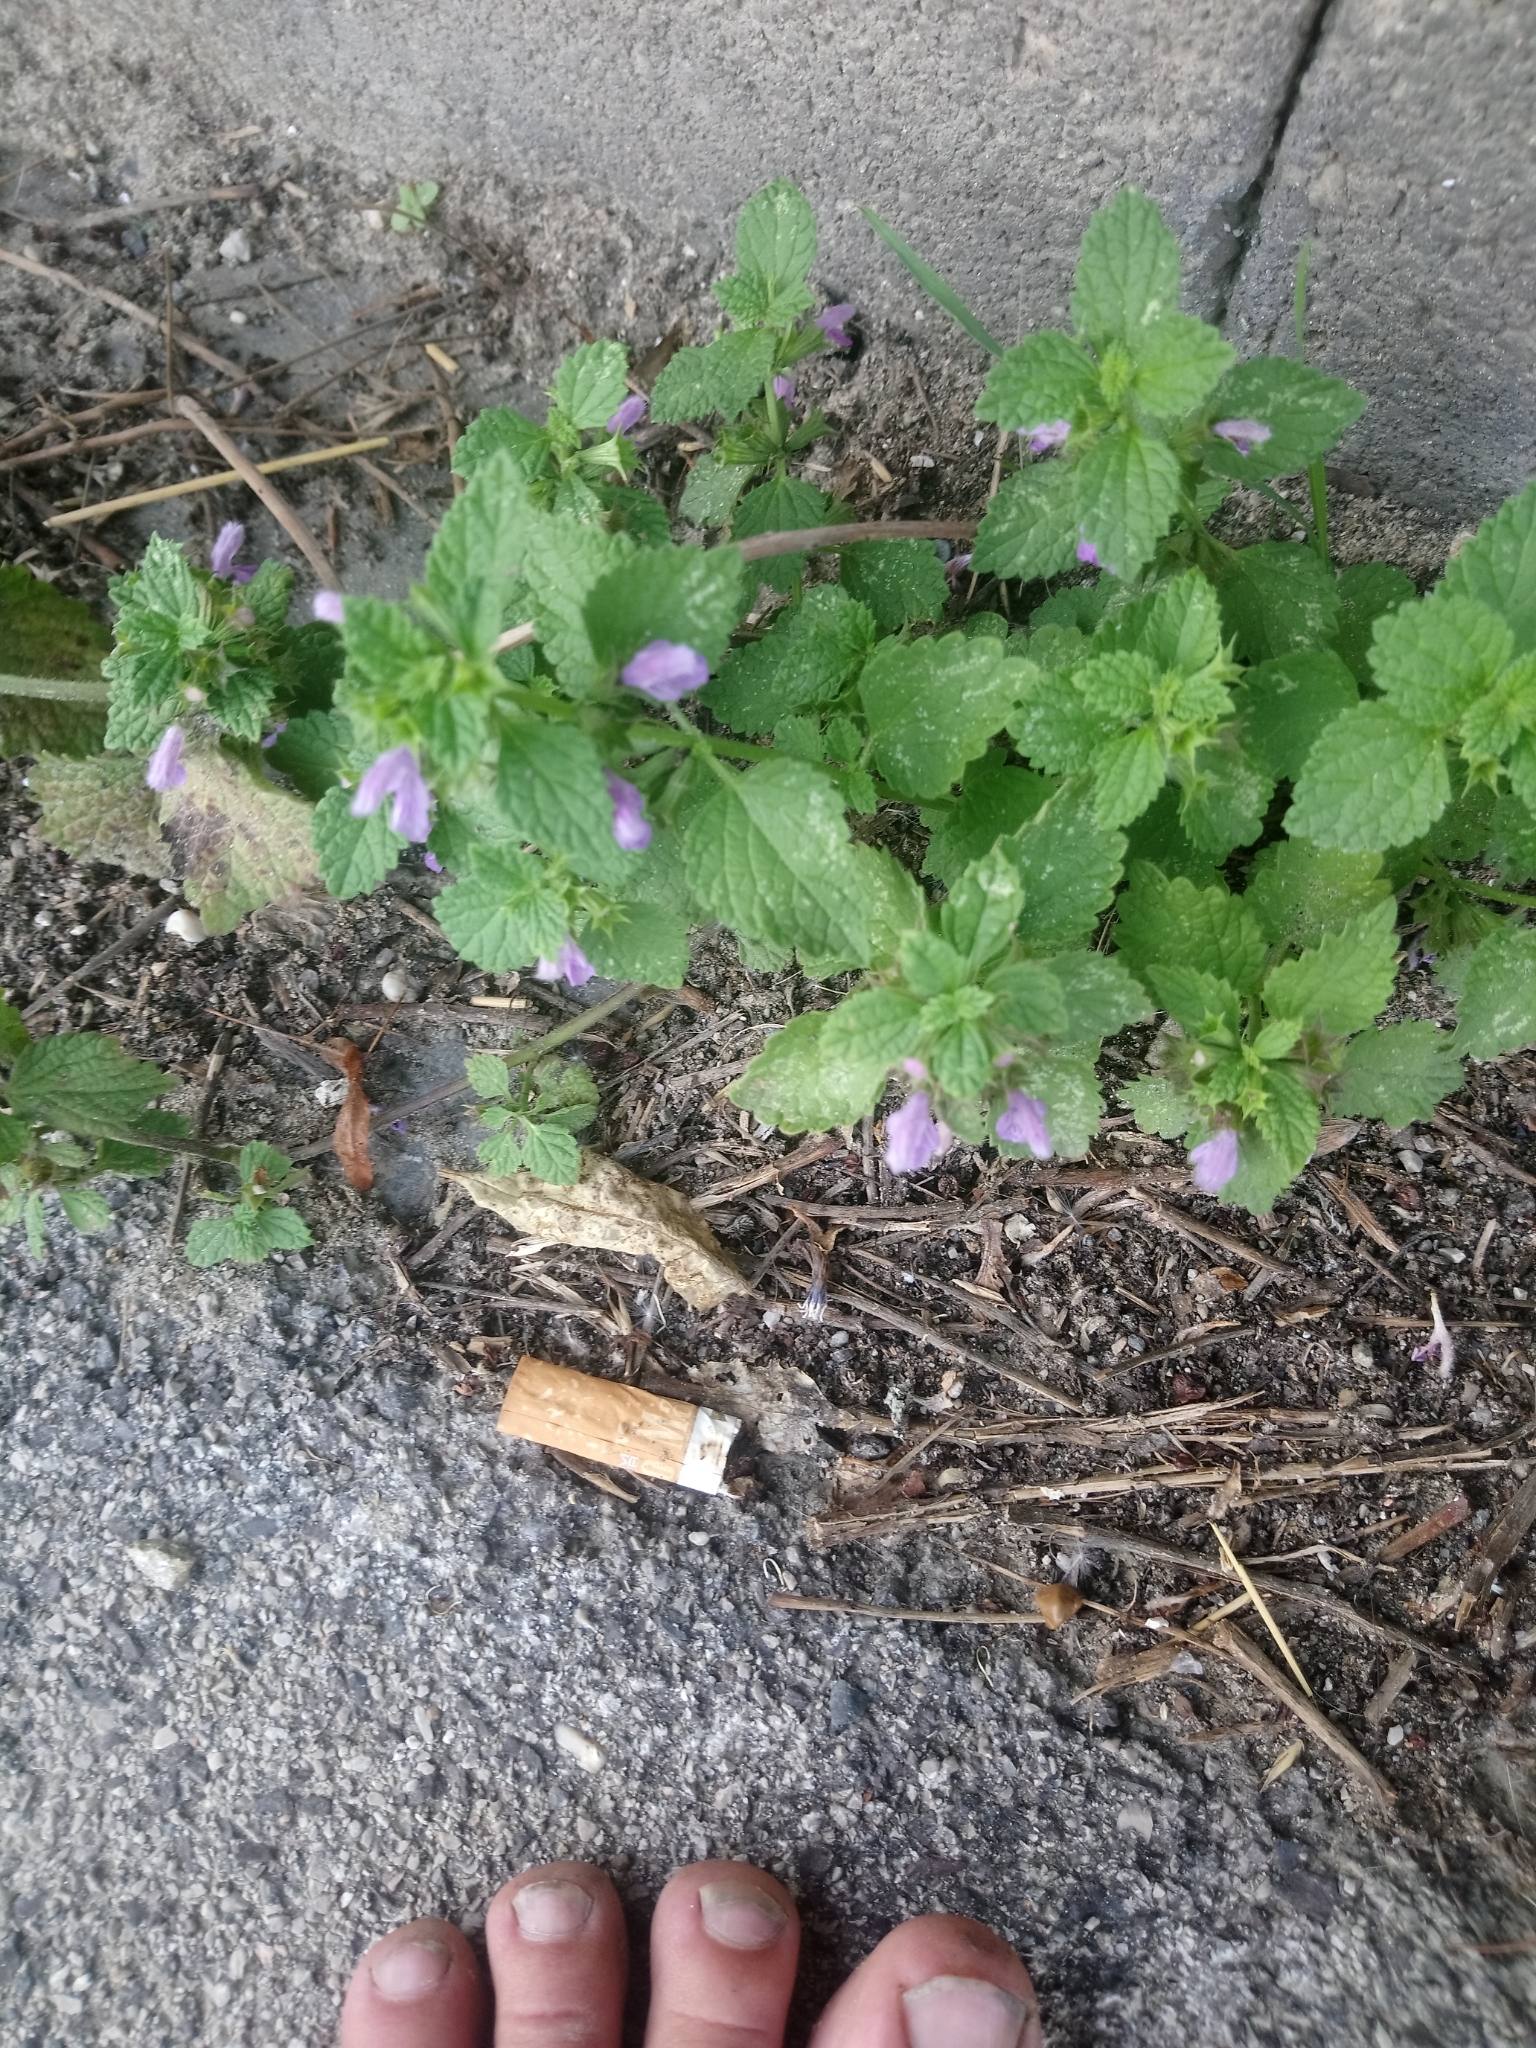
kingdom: Plantae
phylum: Tracheophyta
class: Magnoliopsida
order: Lamiales
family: Lamiaceae
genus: Ballota
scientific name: Ballota nigra
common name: Black horehound
